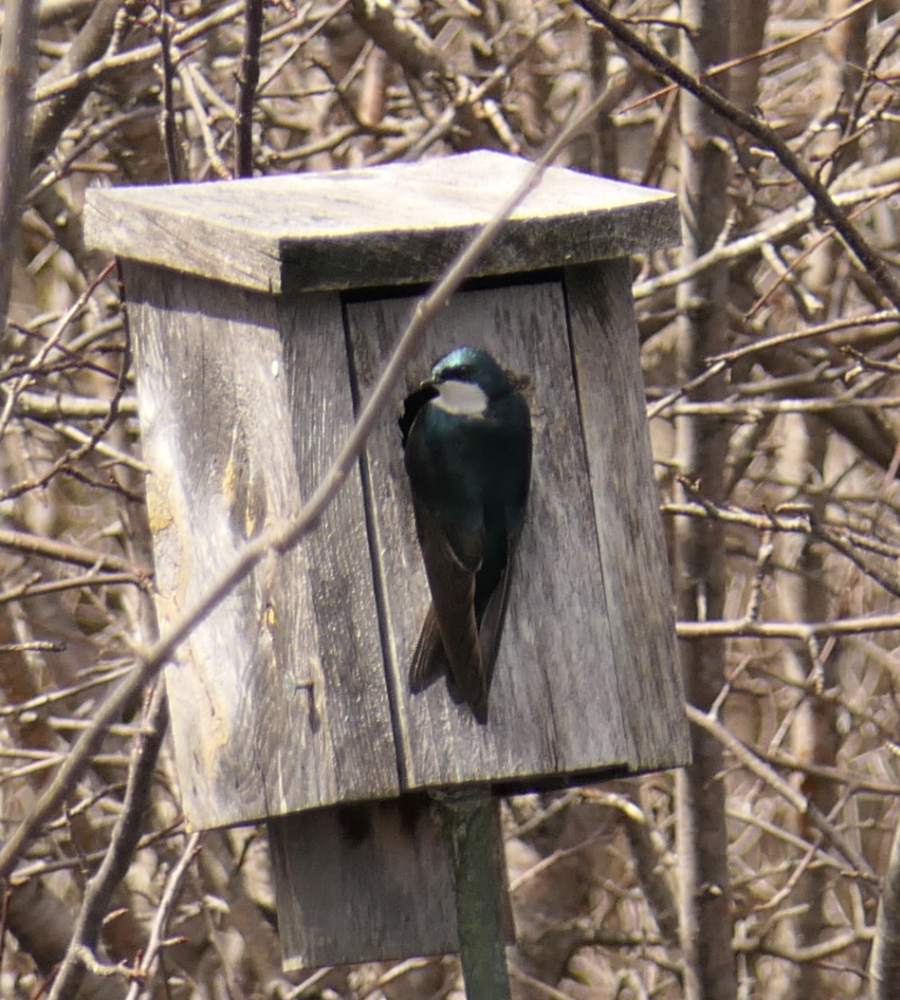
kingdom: Animalia
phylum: Chordata
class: Aves
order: Passeriformes
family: Hirundinidae
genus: Tachycineta
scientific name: Tachycineta bicolor
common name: Tree swallow
